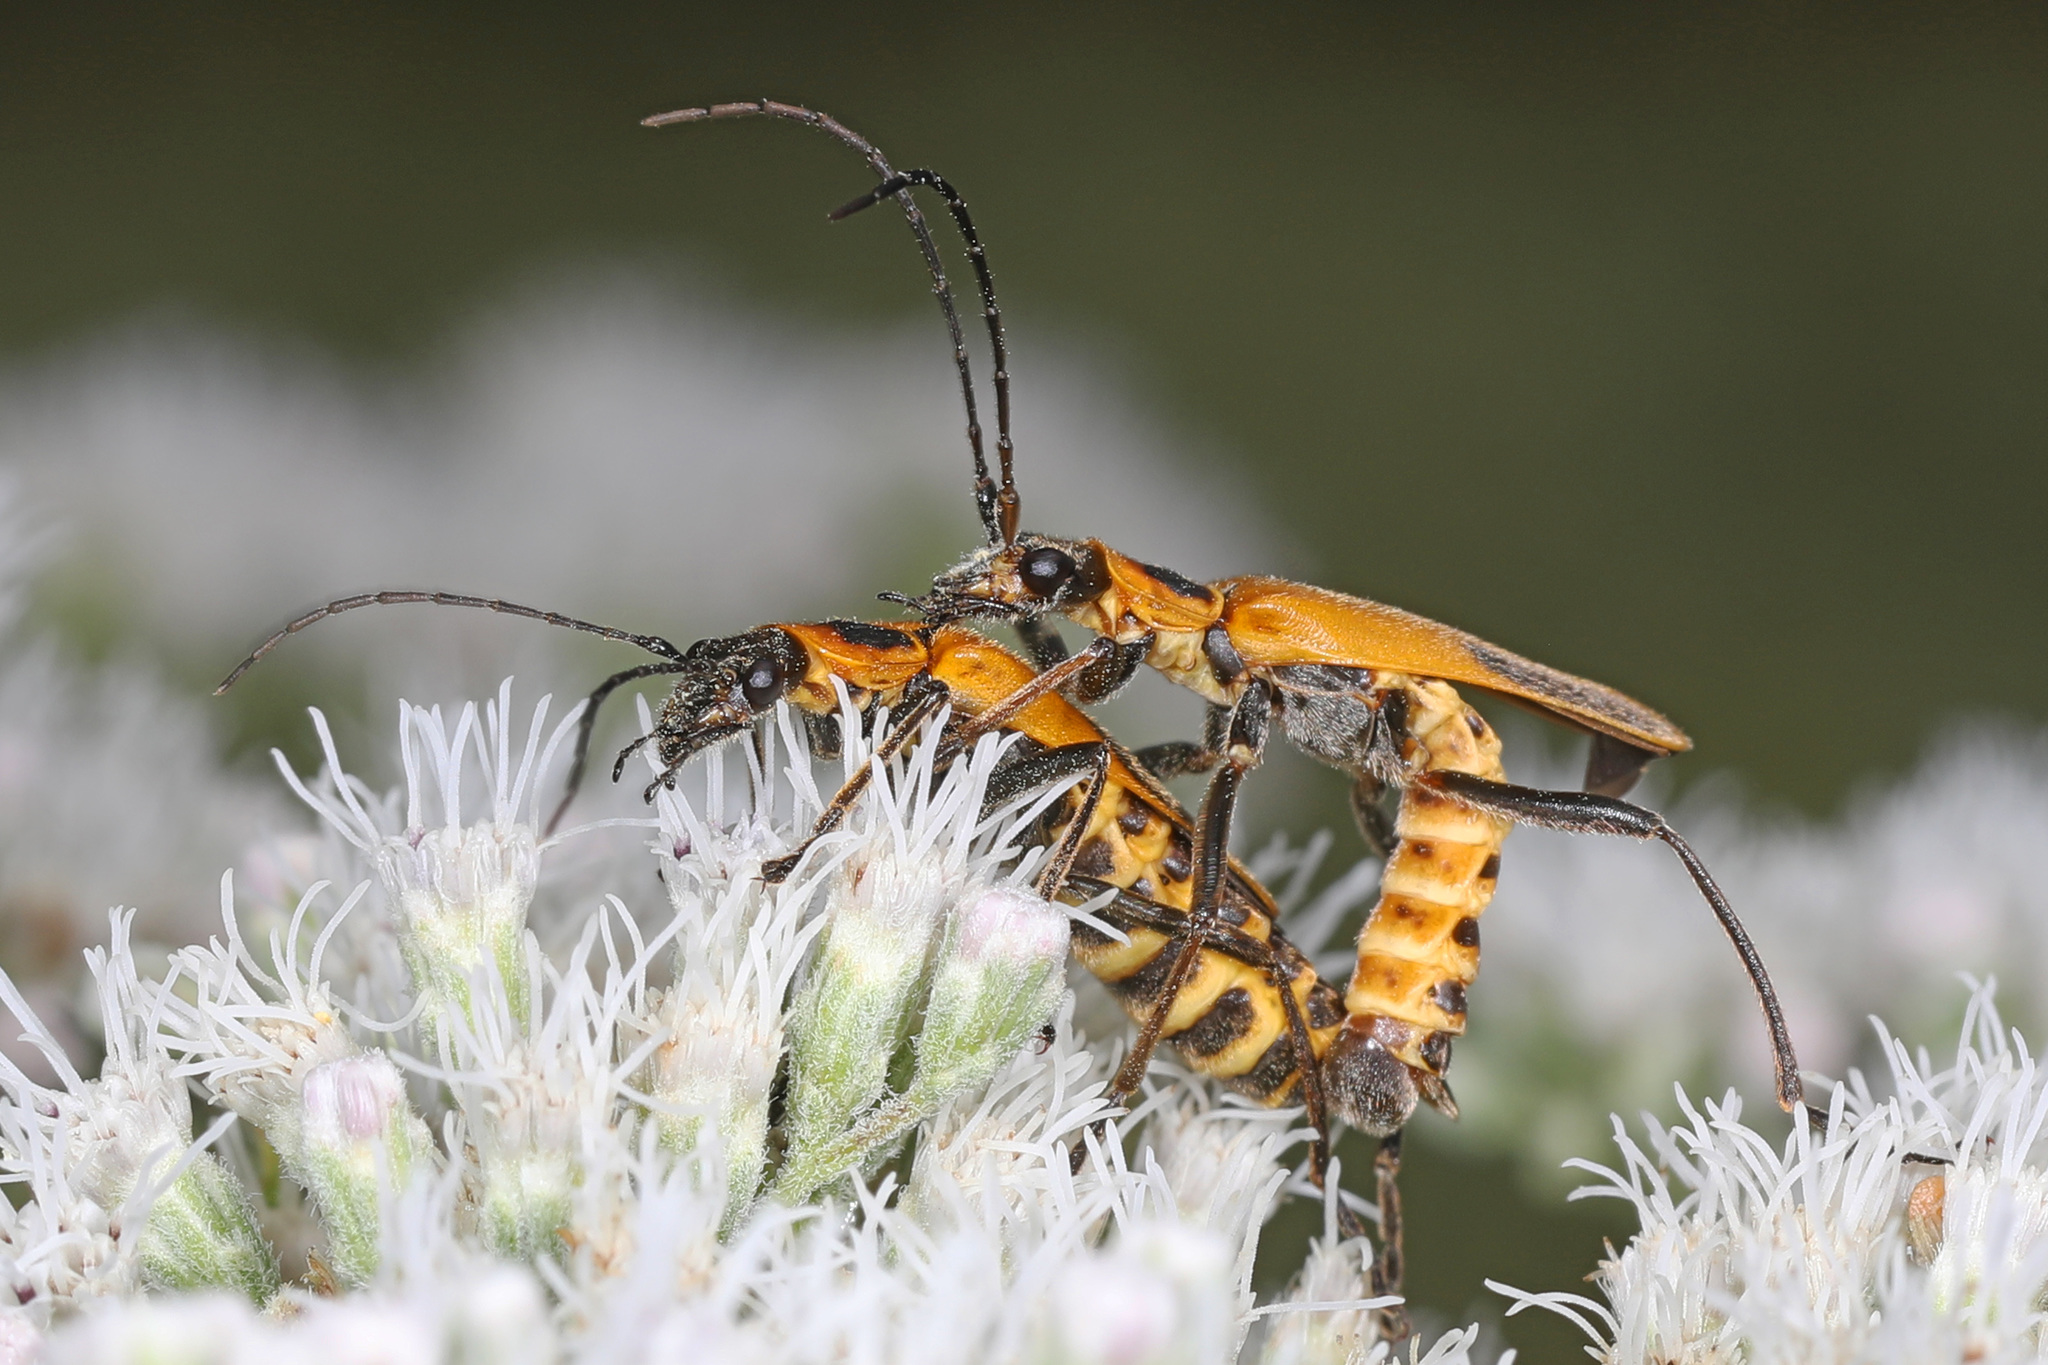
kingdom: Animalia
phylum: Arthropoda
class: Insecta
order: Coleoptera
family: Cantharidae
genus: Chauliognathus
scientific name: Chauliognathus pensylvanicus
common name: Goldenrod soldier beetle
